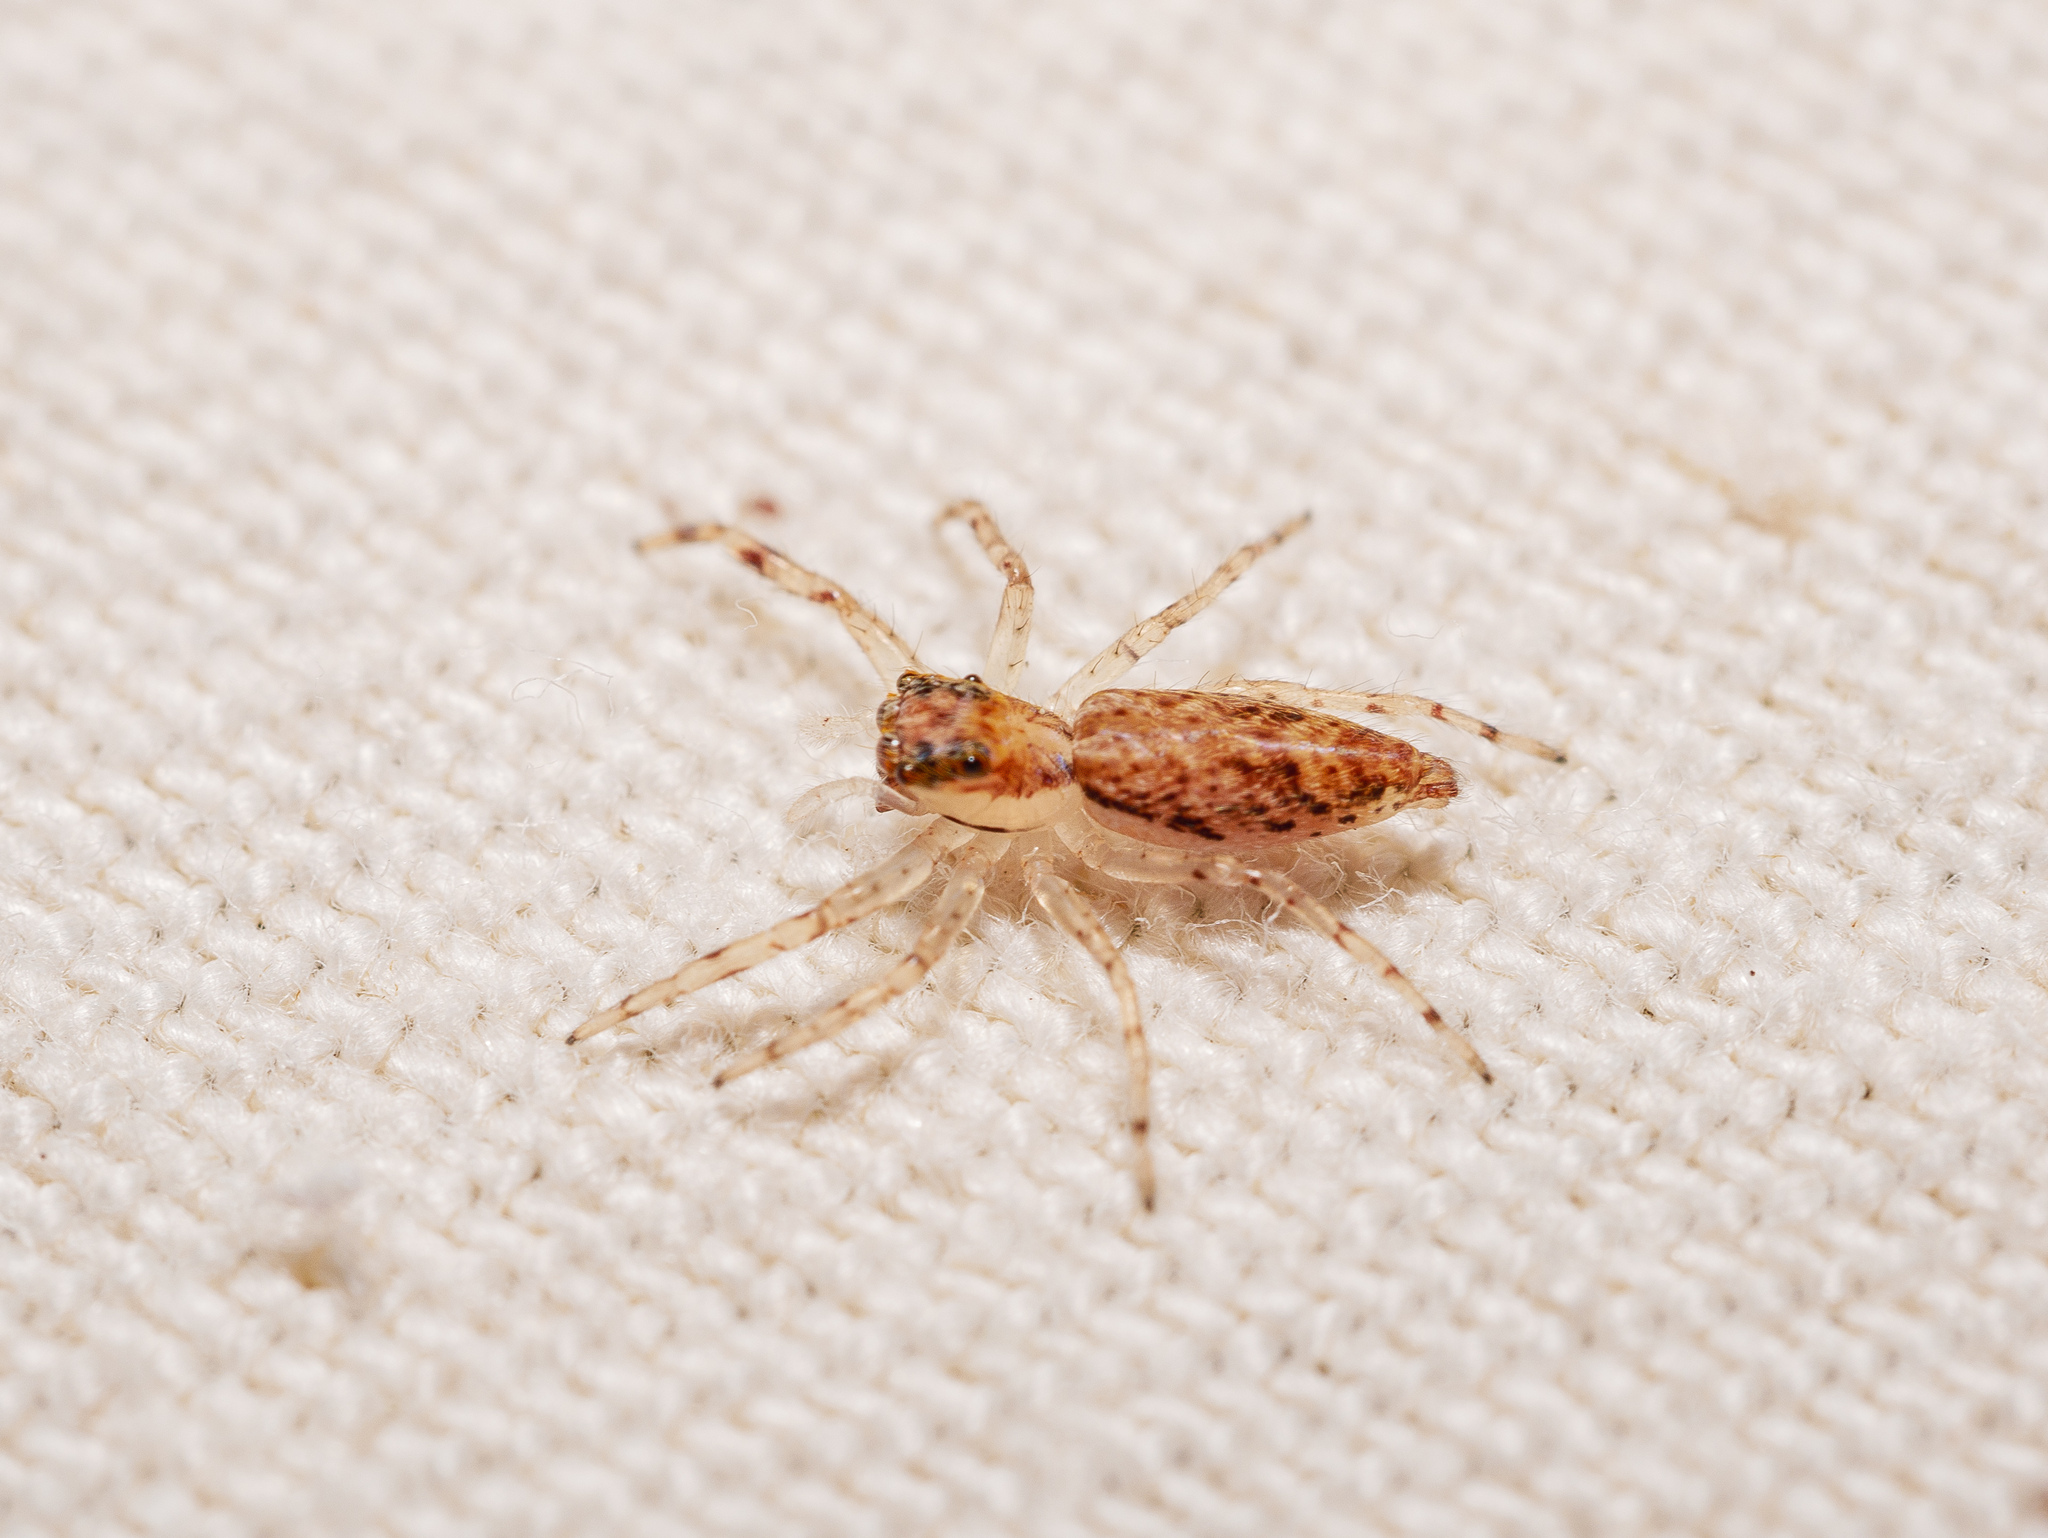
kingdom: Animalia
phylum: Arthropoda
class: Arachnida
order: Araneae
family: Salticidae
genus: Helpis
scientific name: Helpis minitabunda
